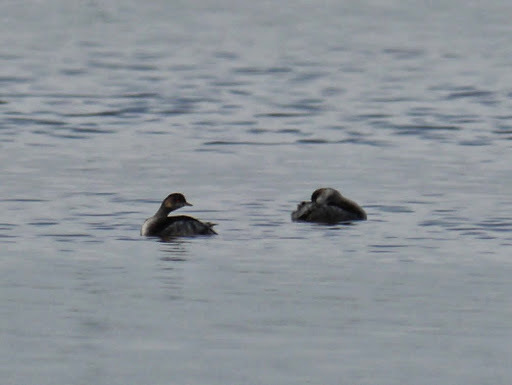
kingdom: Animalia
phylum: Chordata
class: Aves
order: Podicipediformes
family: Podicipedidae
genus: Podiceps
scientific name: Podiceps nigricollis
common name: Black-necked grebe
